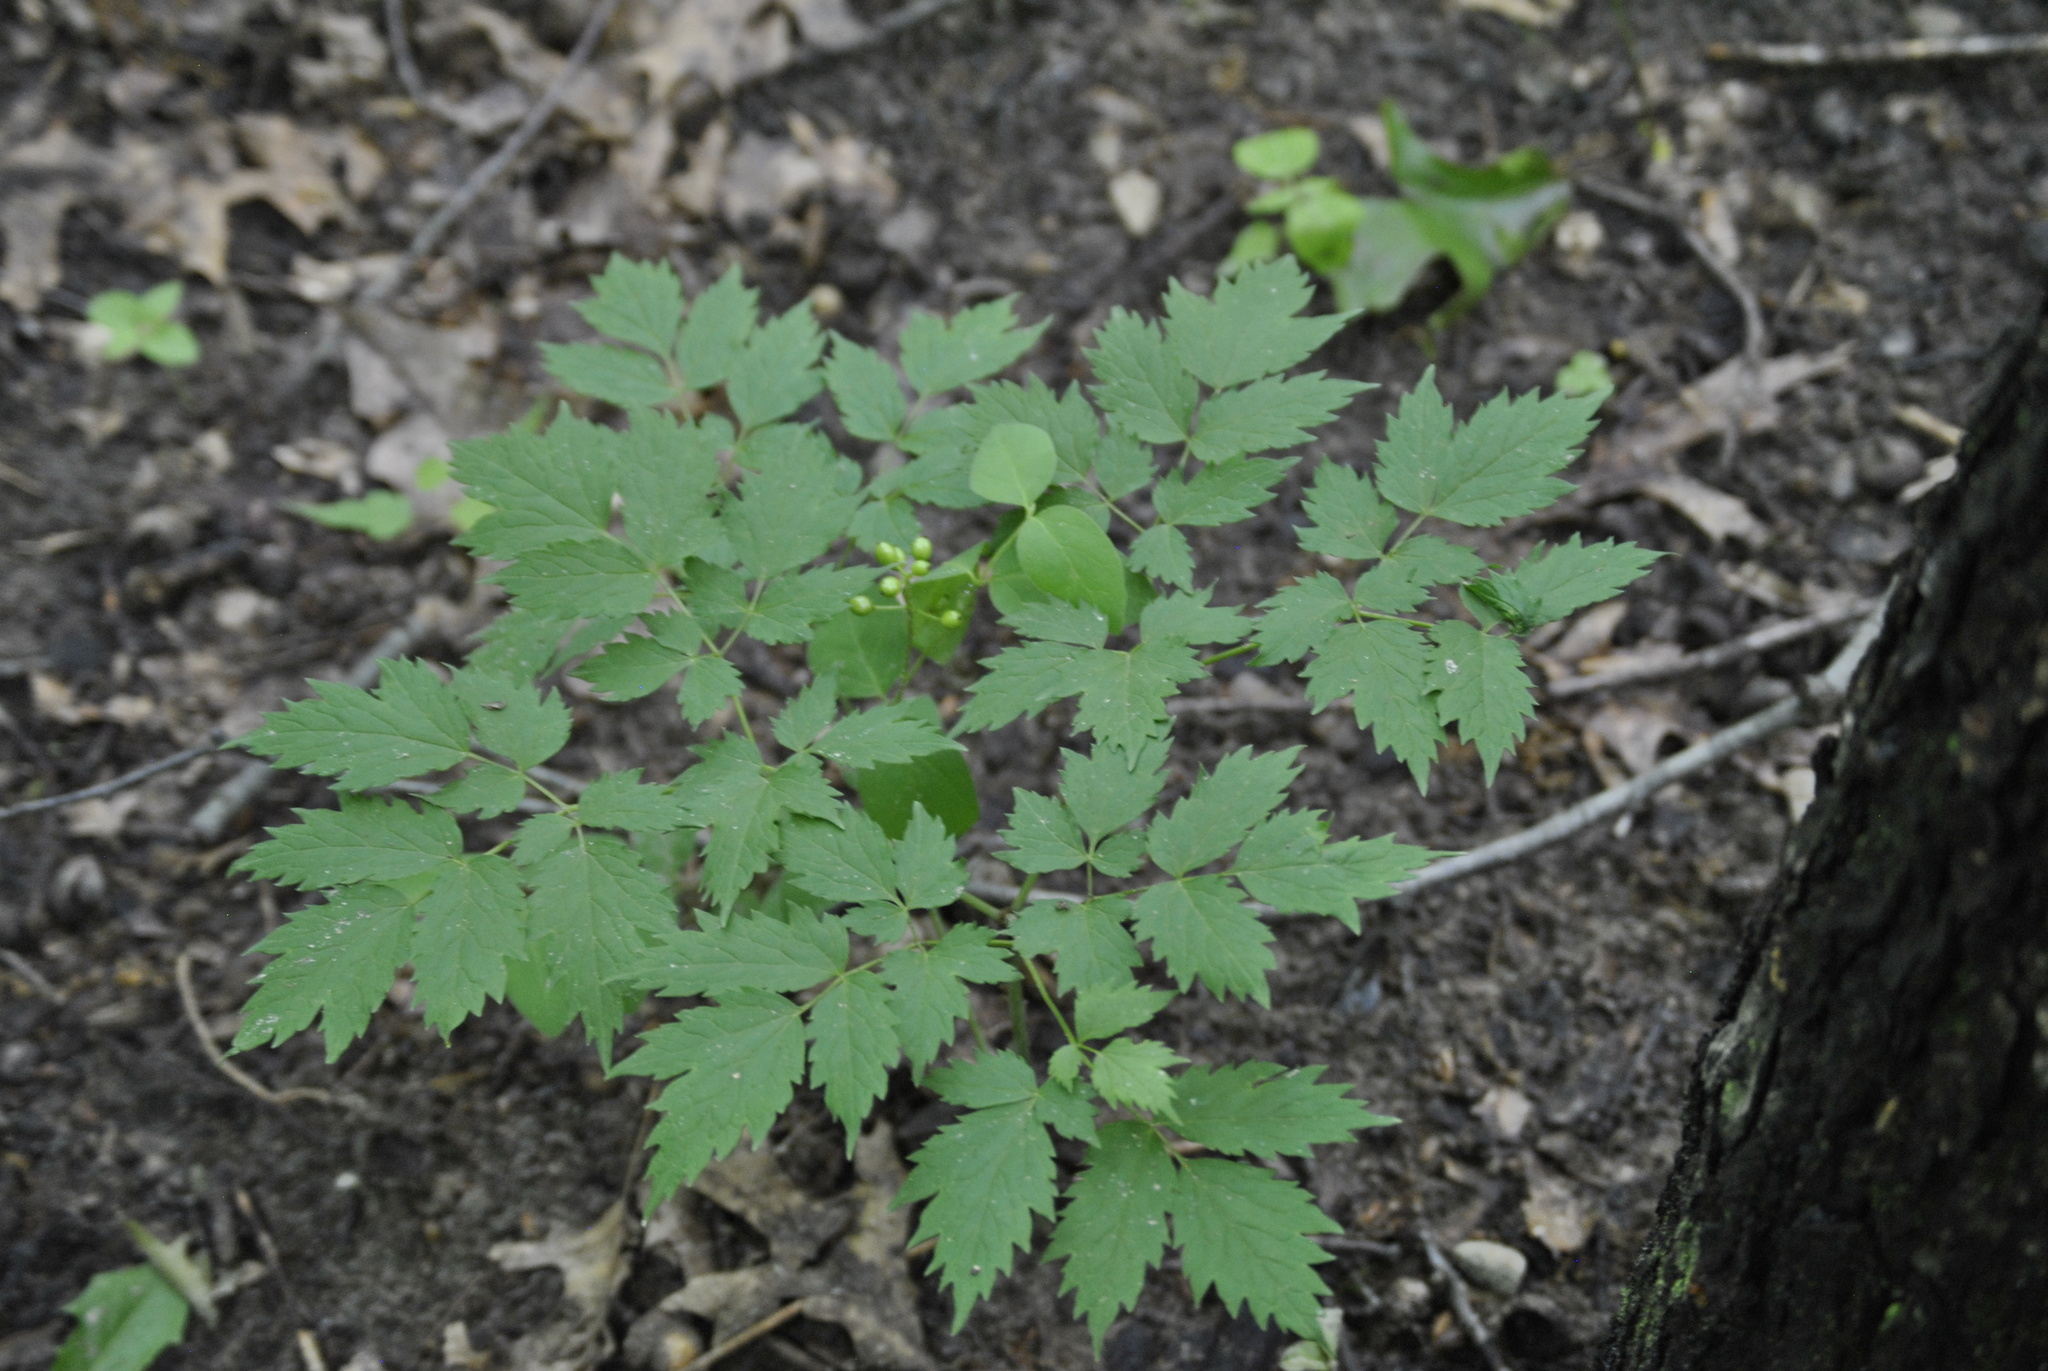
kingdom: Plantae
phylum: Tracheophyta
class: Magnoliopsida
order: Ranunculales
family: Ranunculaceae
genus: Actaea
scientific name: Actaea rubra
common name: Red baneberry
